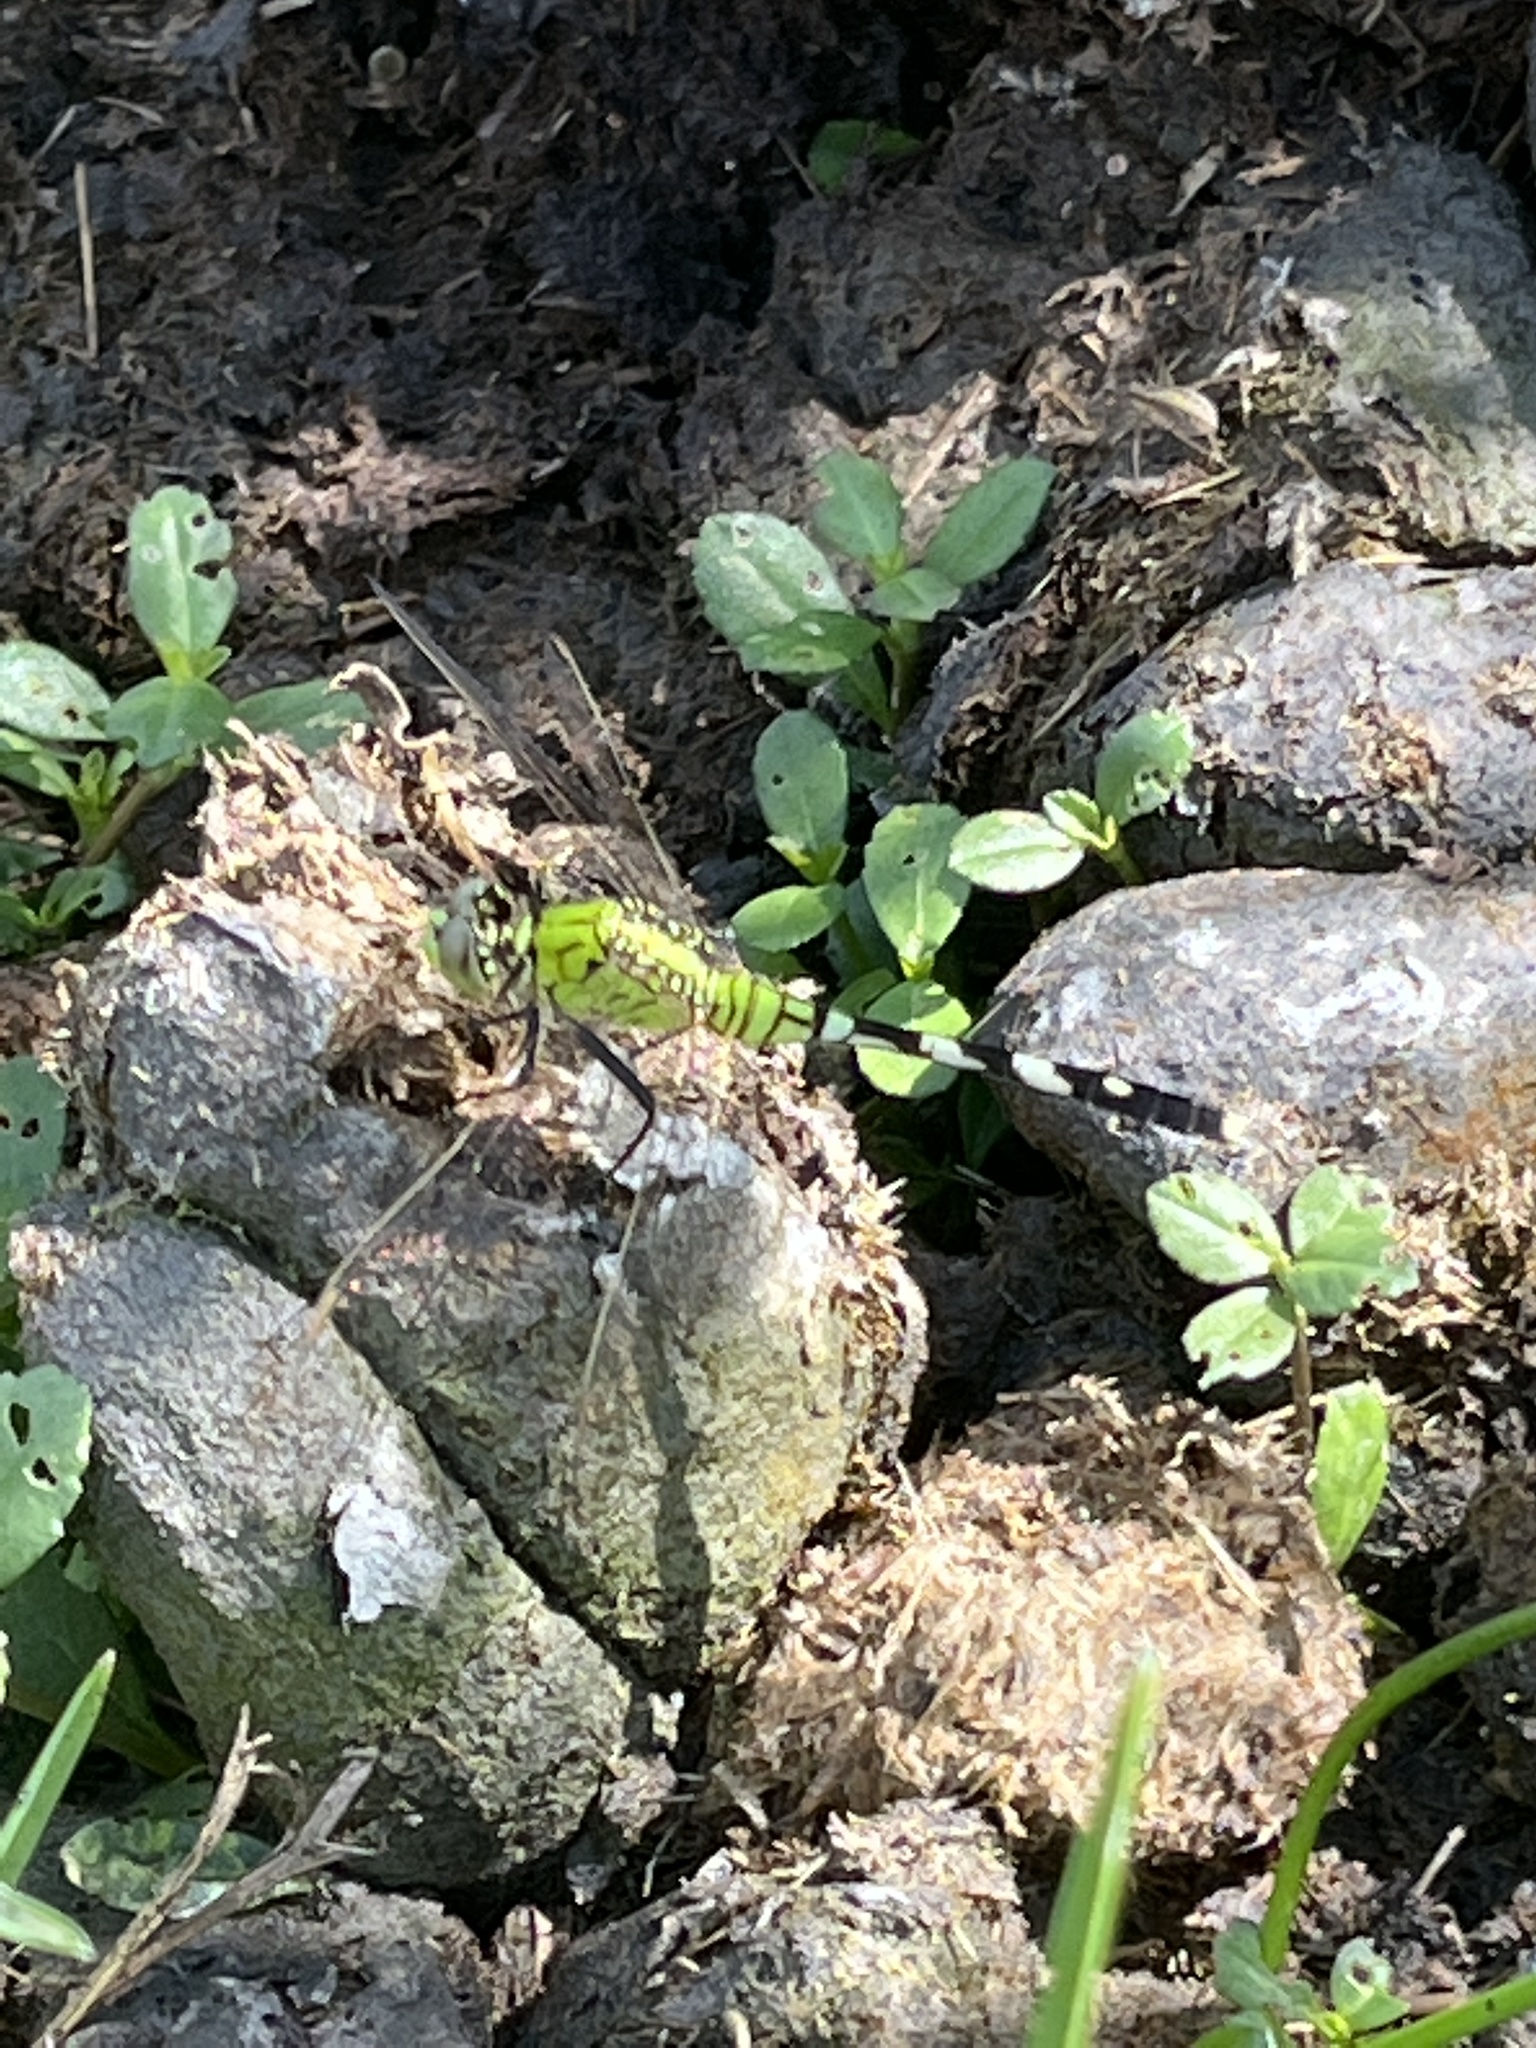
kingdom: Animalia
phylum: Arthropoda
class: Insecta
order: Odonata
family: Libellulidae
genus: Erythemis
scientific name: Erythemis simplicicollis
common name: Eastern pondhawk
